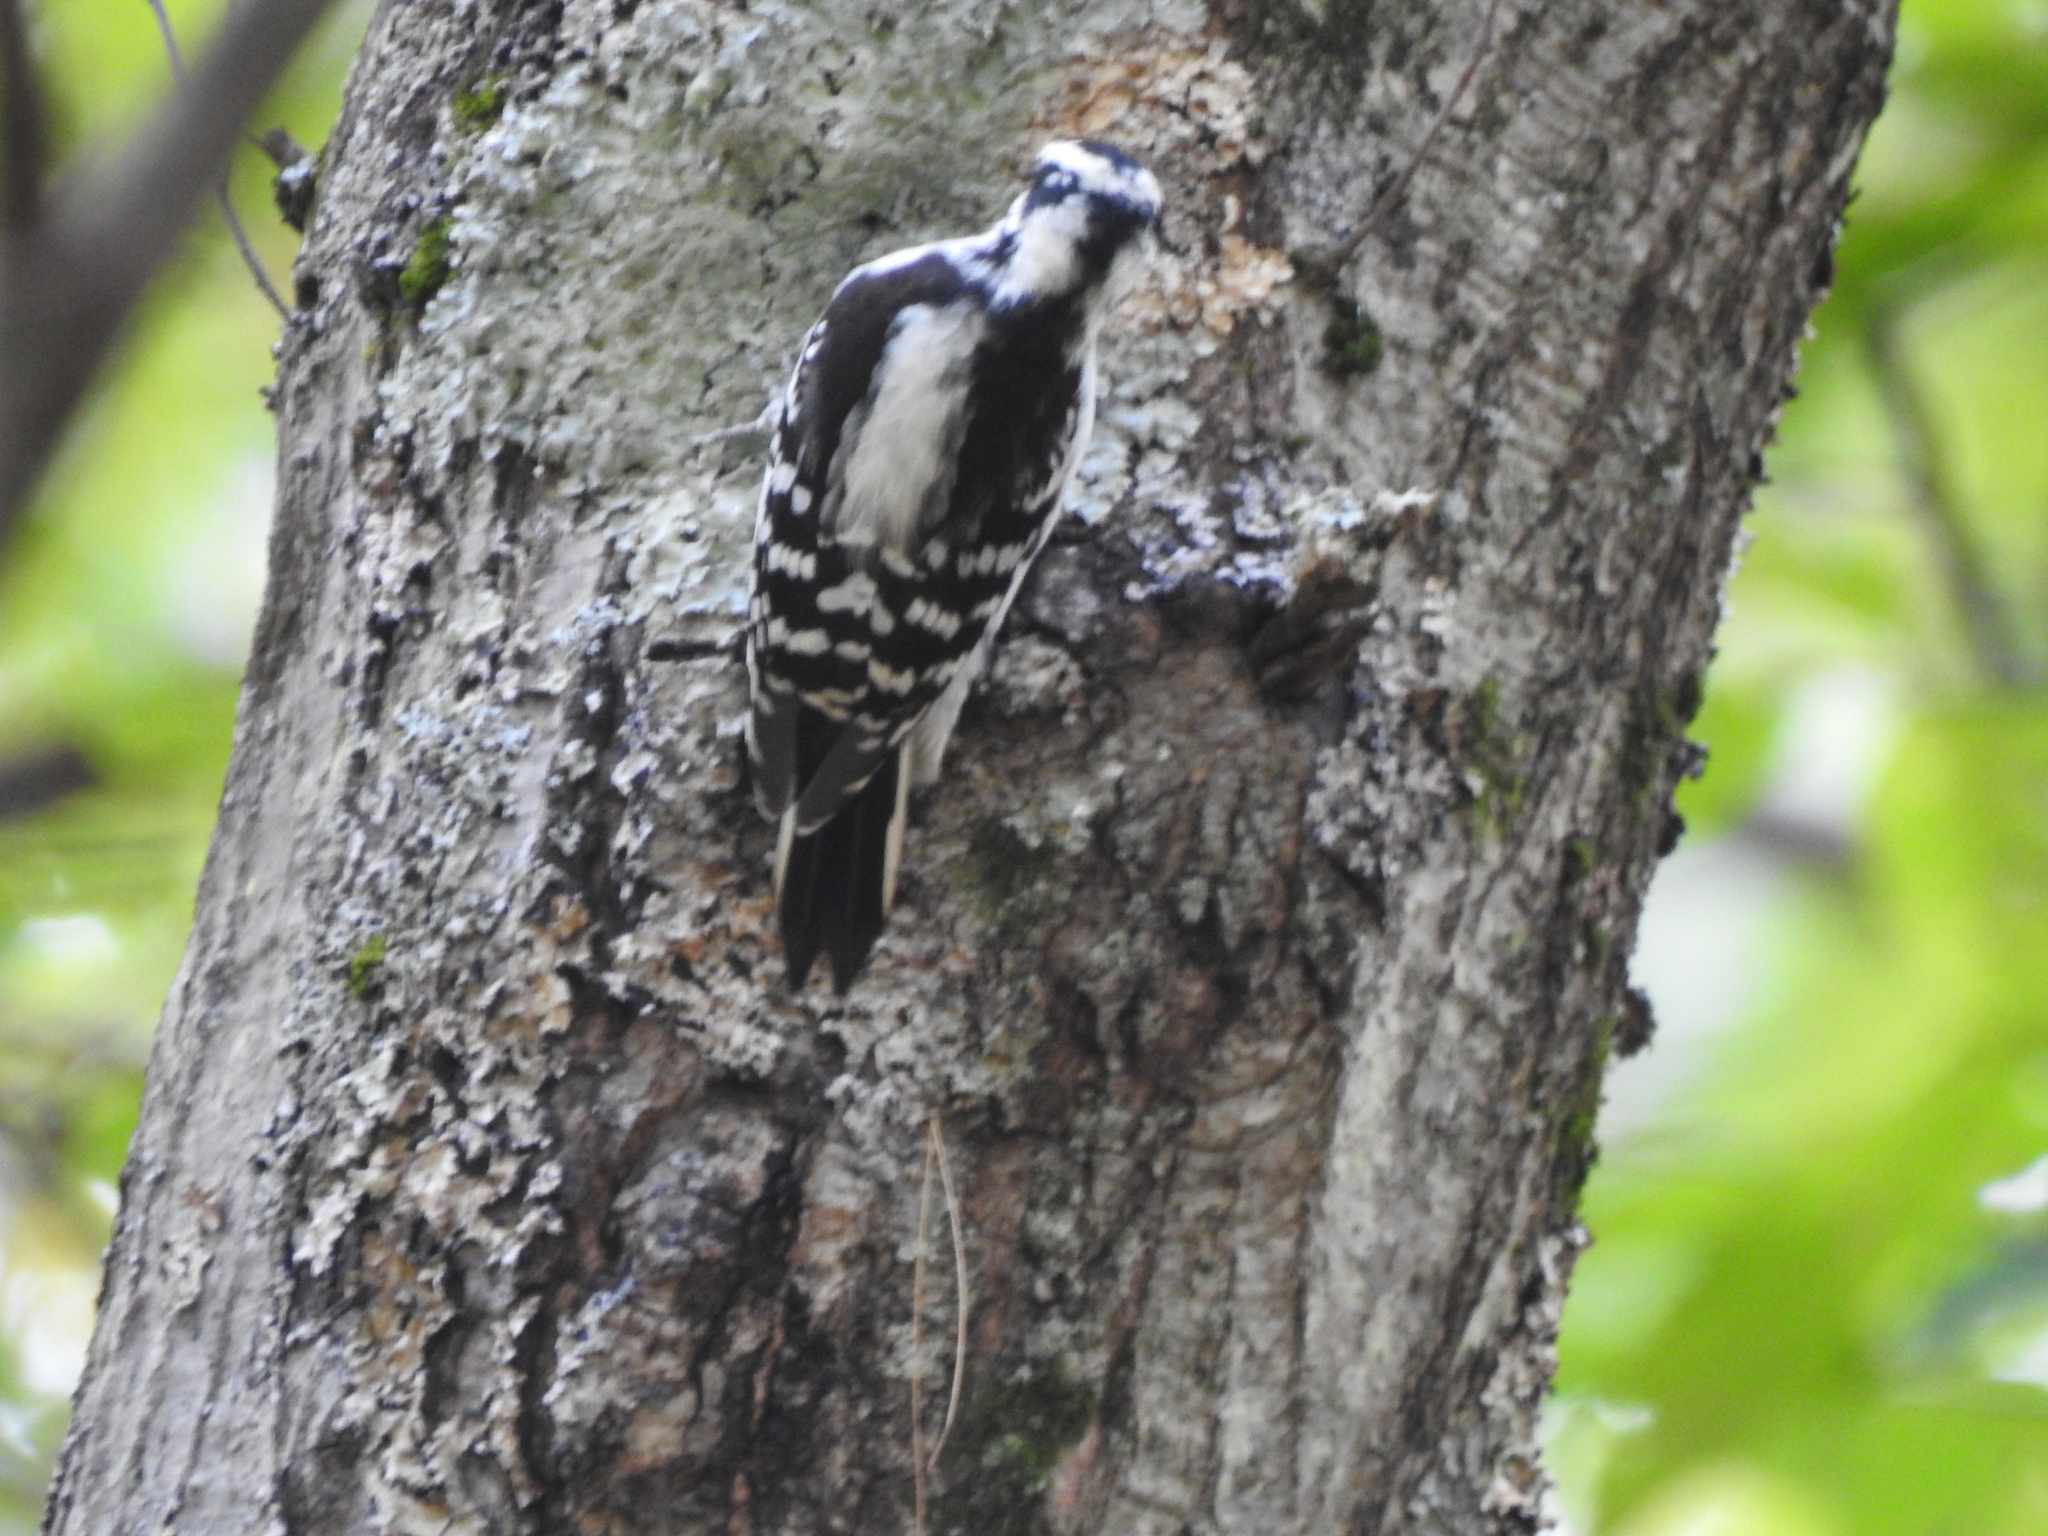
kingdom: Animalia
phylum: Chordata
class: Aves
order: Piciformes
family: Picidae
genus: Dryobates
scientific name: Dryobates pubescens
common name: Downy woodpecker
